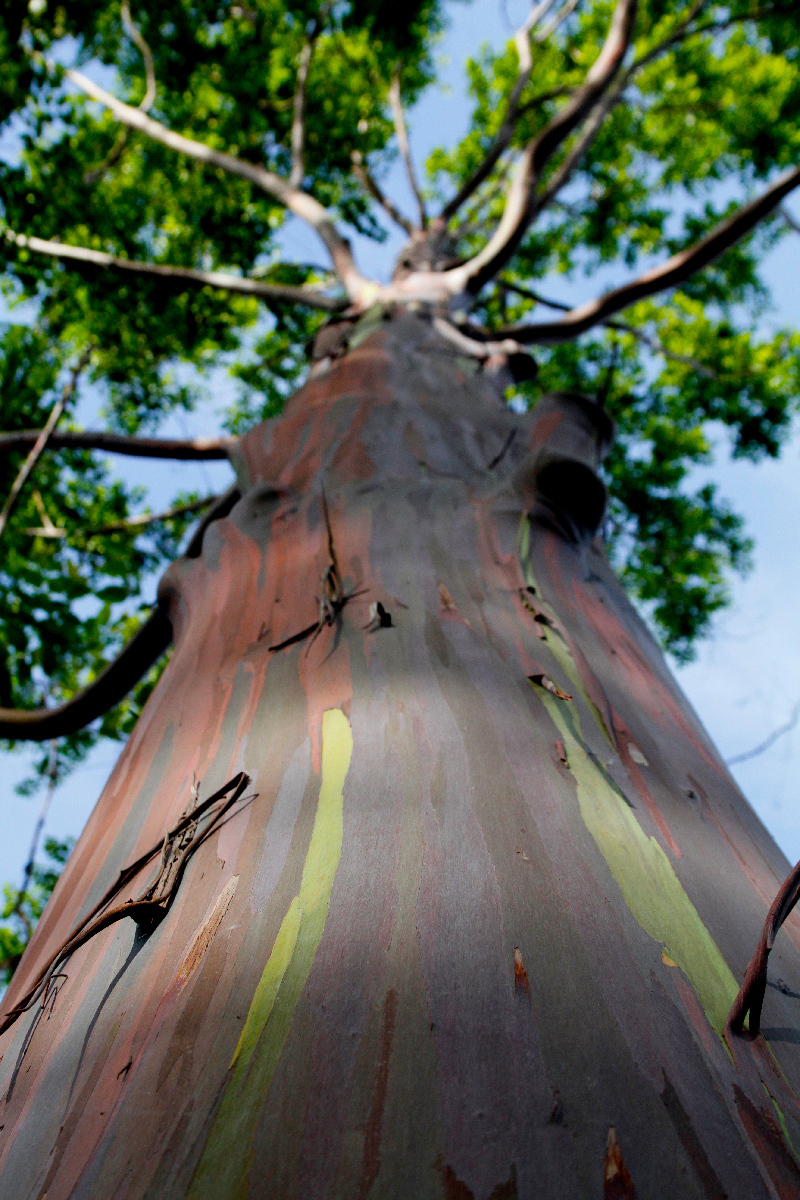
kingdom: Plantae
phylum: Tracheophyta
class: Magnoliopsida
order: Myrtales
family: Myrtaceae
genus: Eucalyptus
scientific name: Eucalyptus deglupta
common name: Mindanao gum
